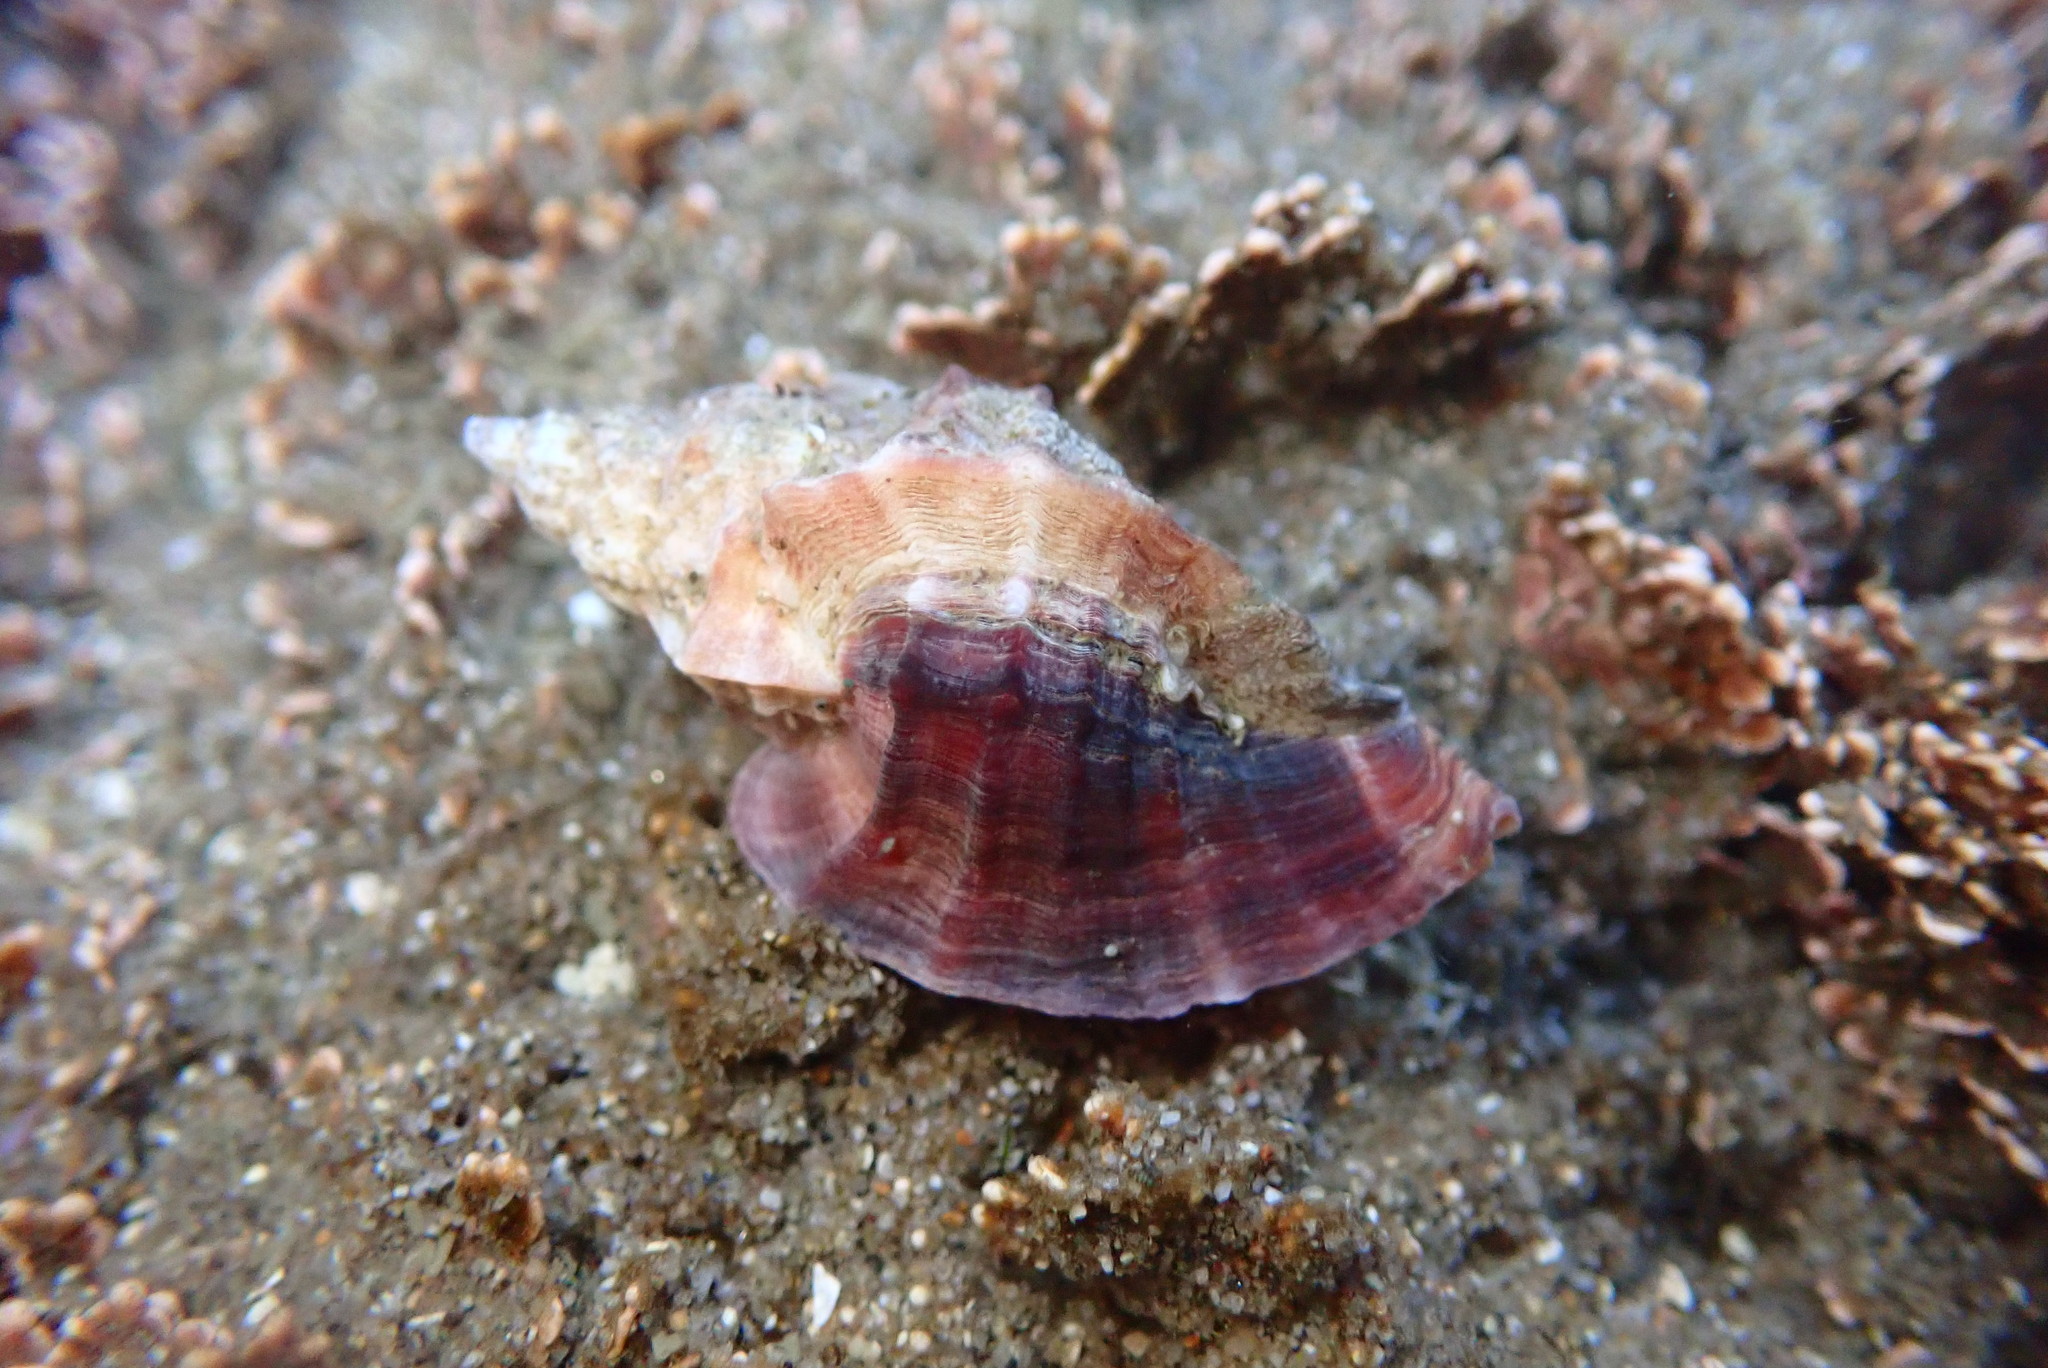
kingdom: Animalia
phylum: Mollusca
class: Gastropoda
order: Neogastropoda
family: Muricidae
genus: Ceratostoma
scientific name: Ceratostoma foliatum
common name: Foliate thorn purpura
